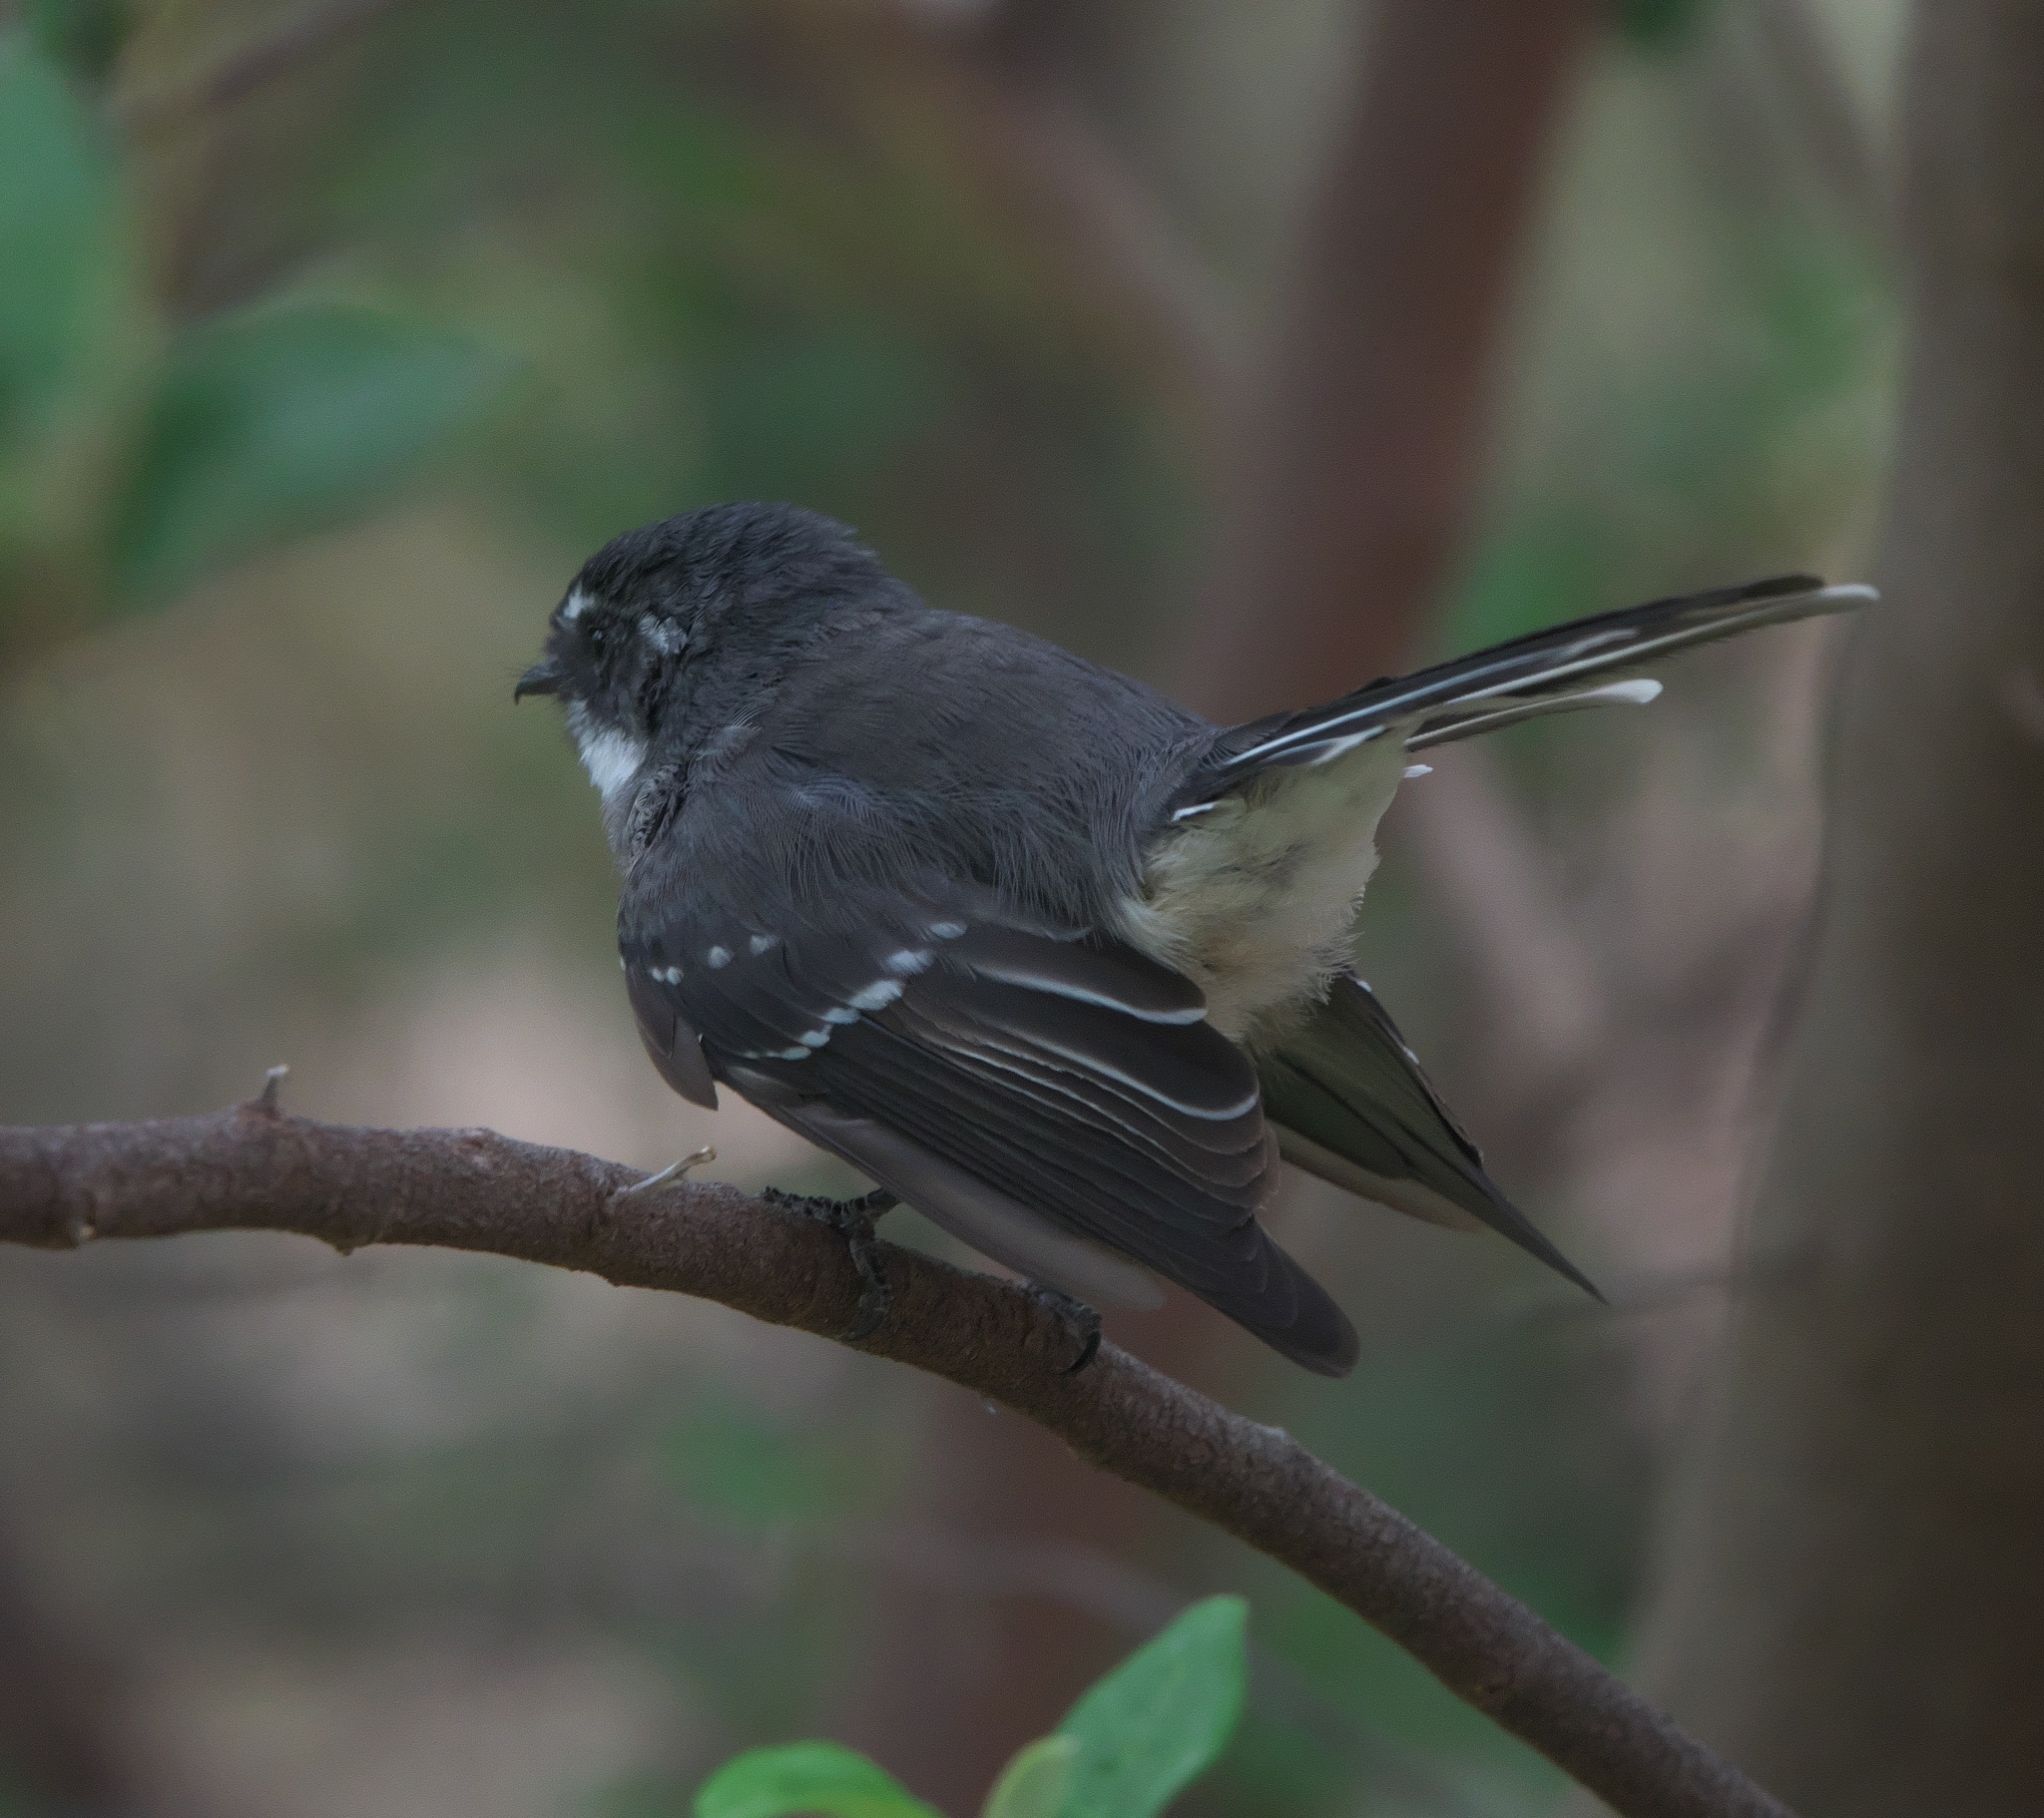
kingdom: Animalia
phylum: Chordata
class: Aves
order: Passeriformes
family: Rhipiduridae
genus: Rhipidura
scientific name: Rhipidura albiscapa
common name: Grey fantail
